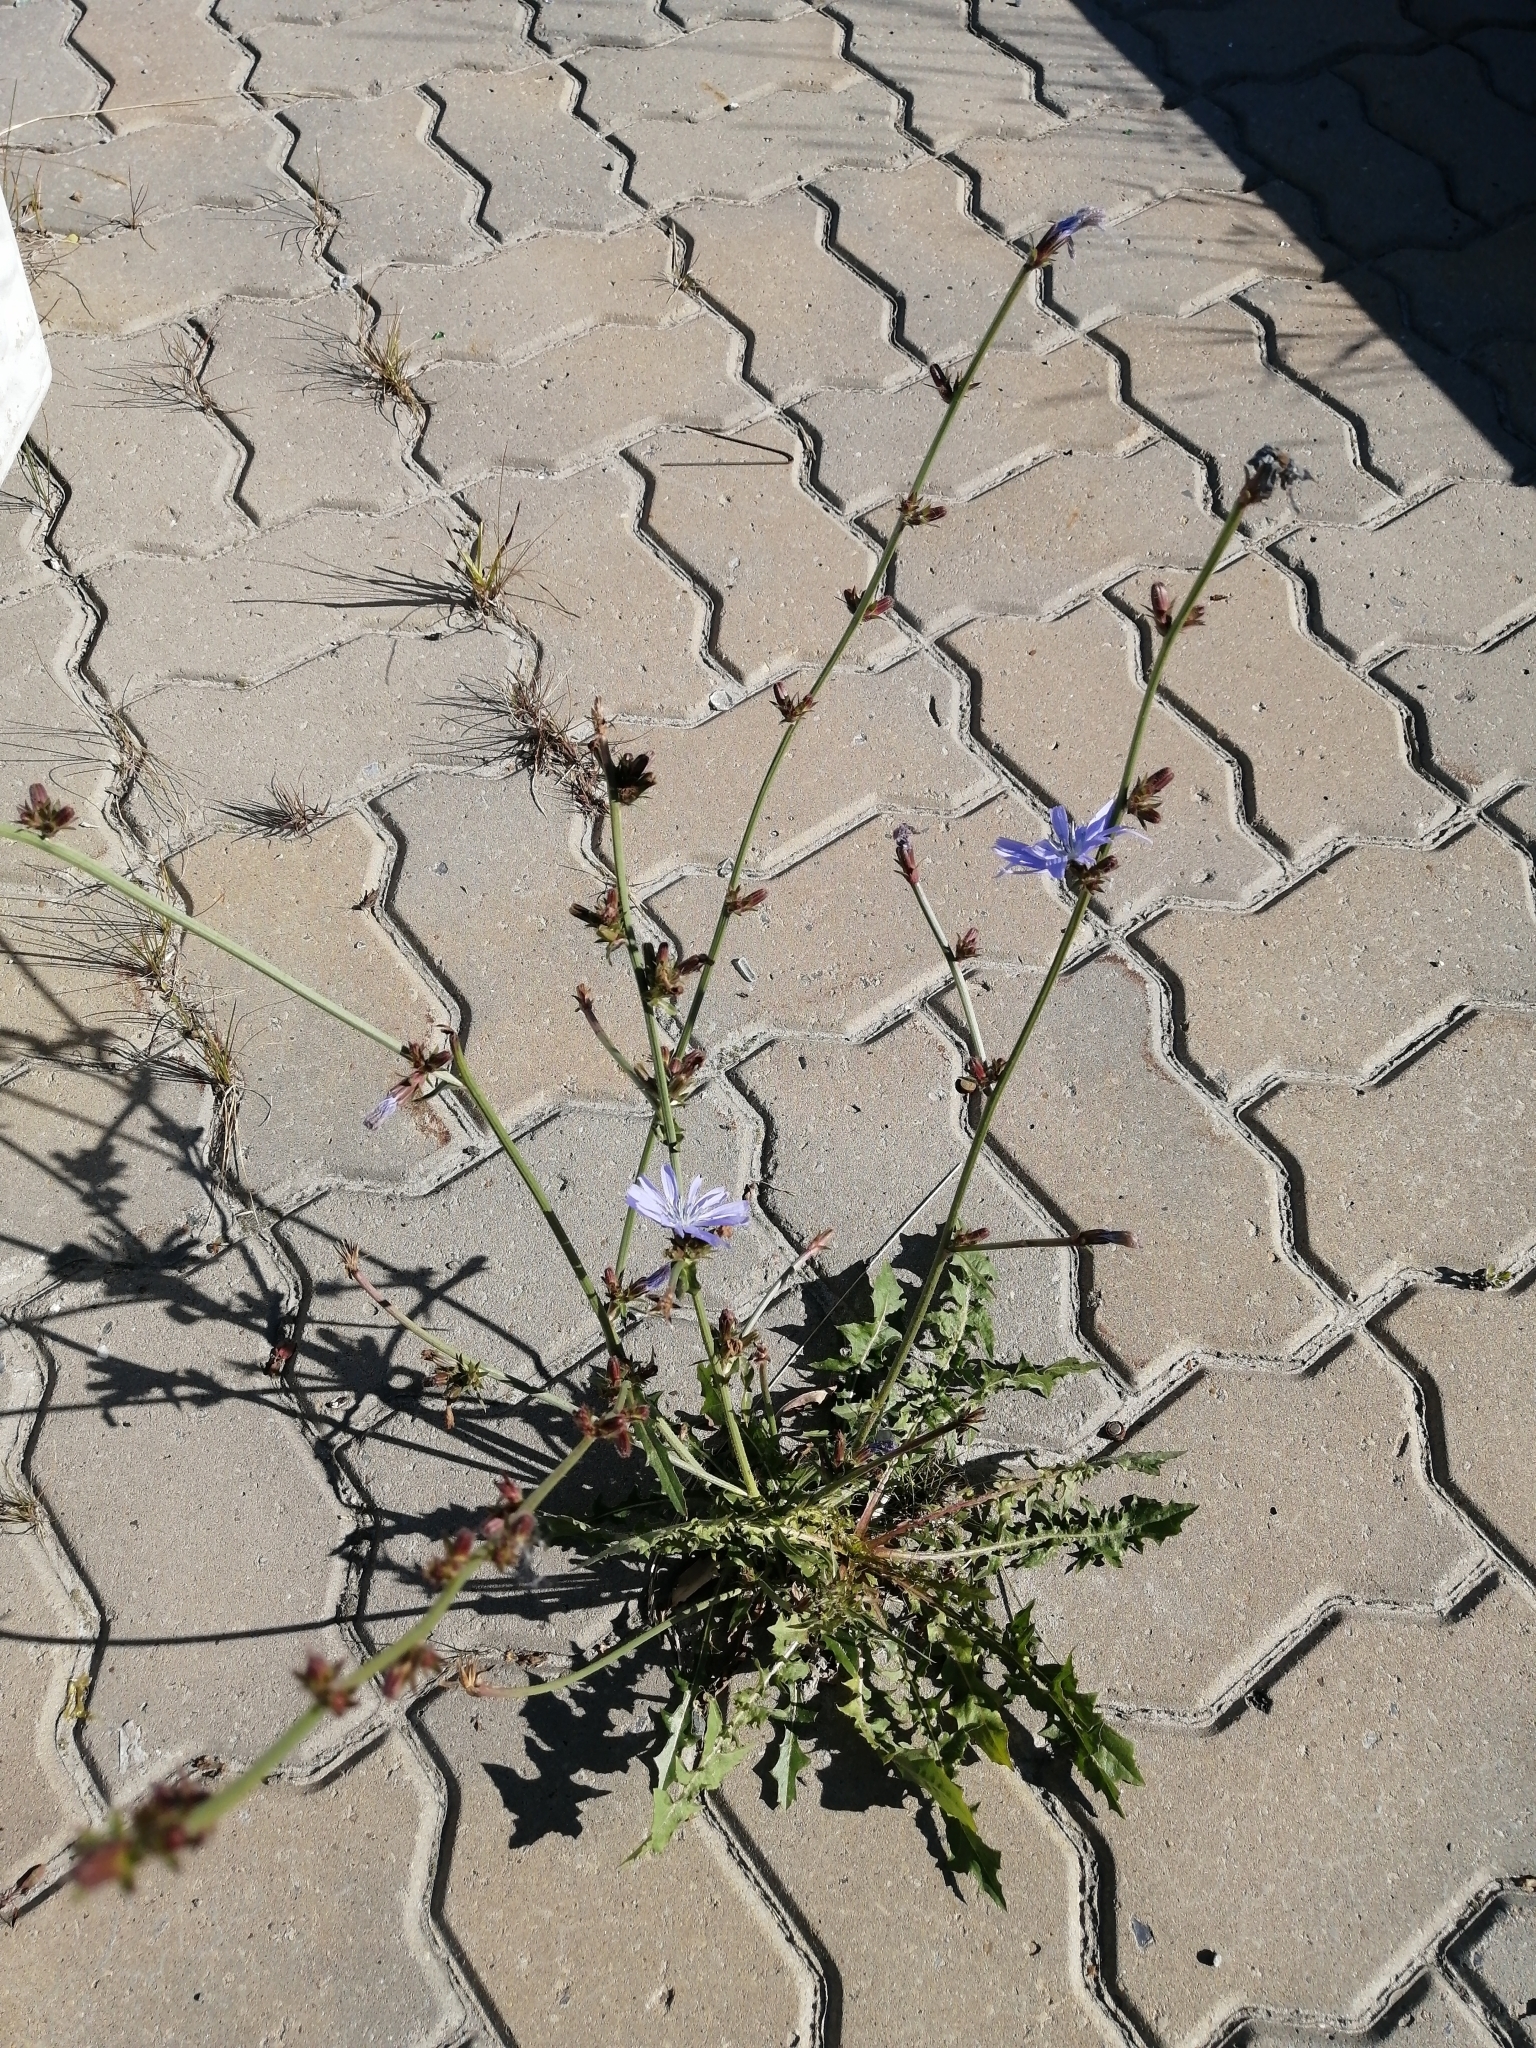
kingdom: Plantae
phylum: Tracheophyta
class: Magnoliopsida
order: Asterales
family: Asteraceae
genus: Cichorium
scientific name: Cichorium intybus
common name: Chicory
